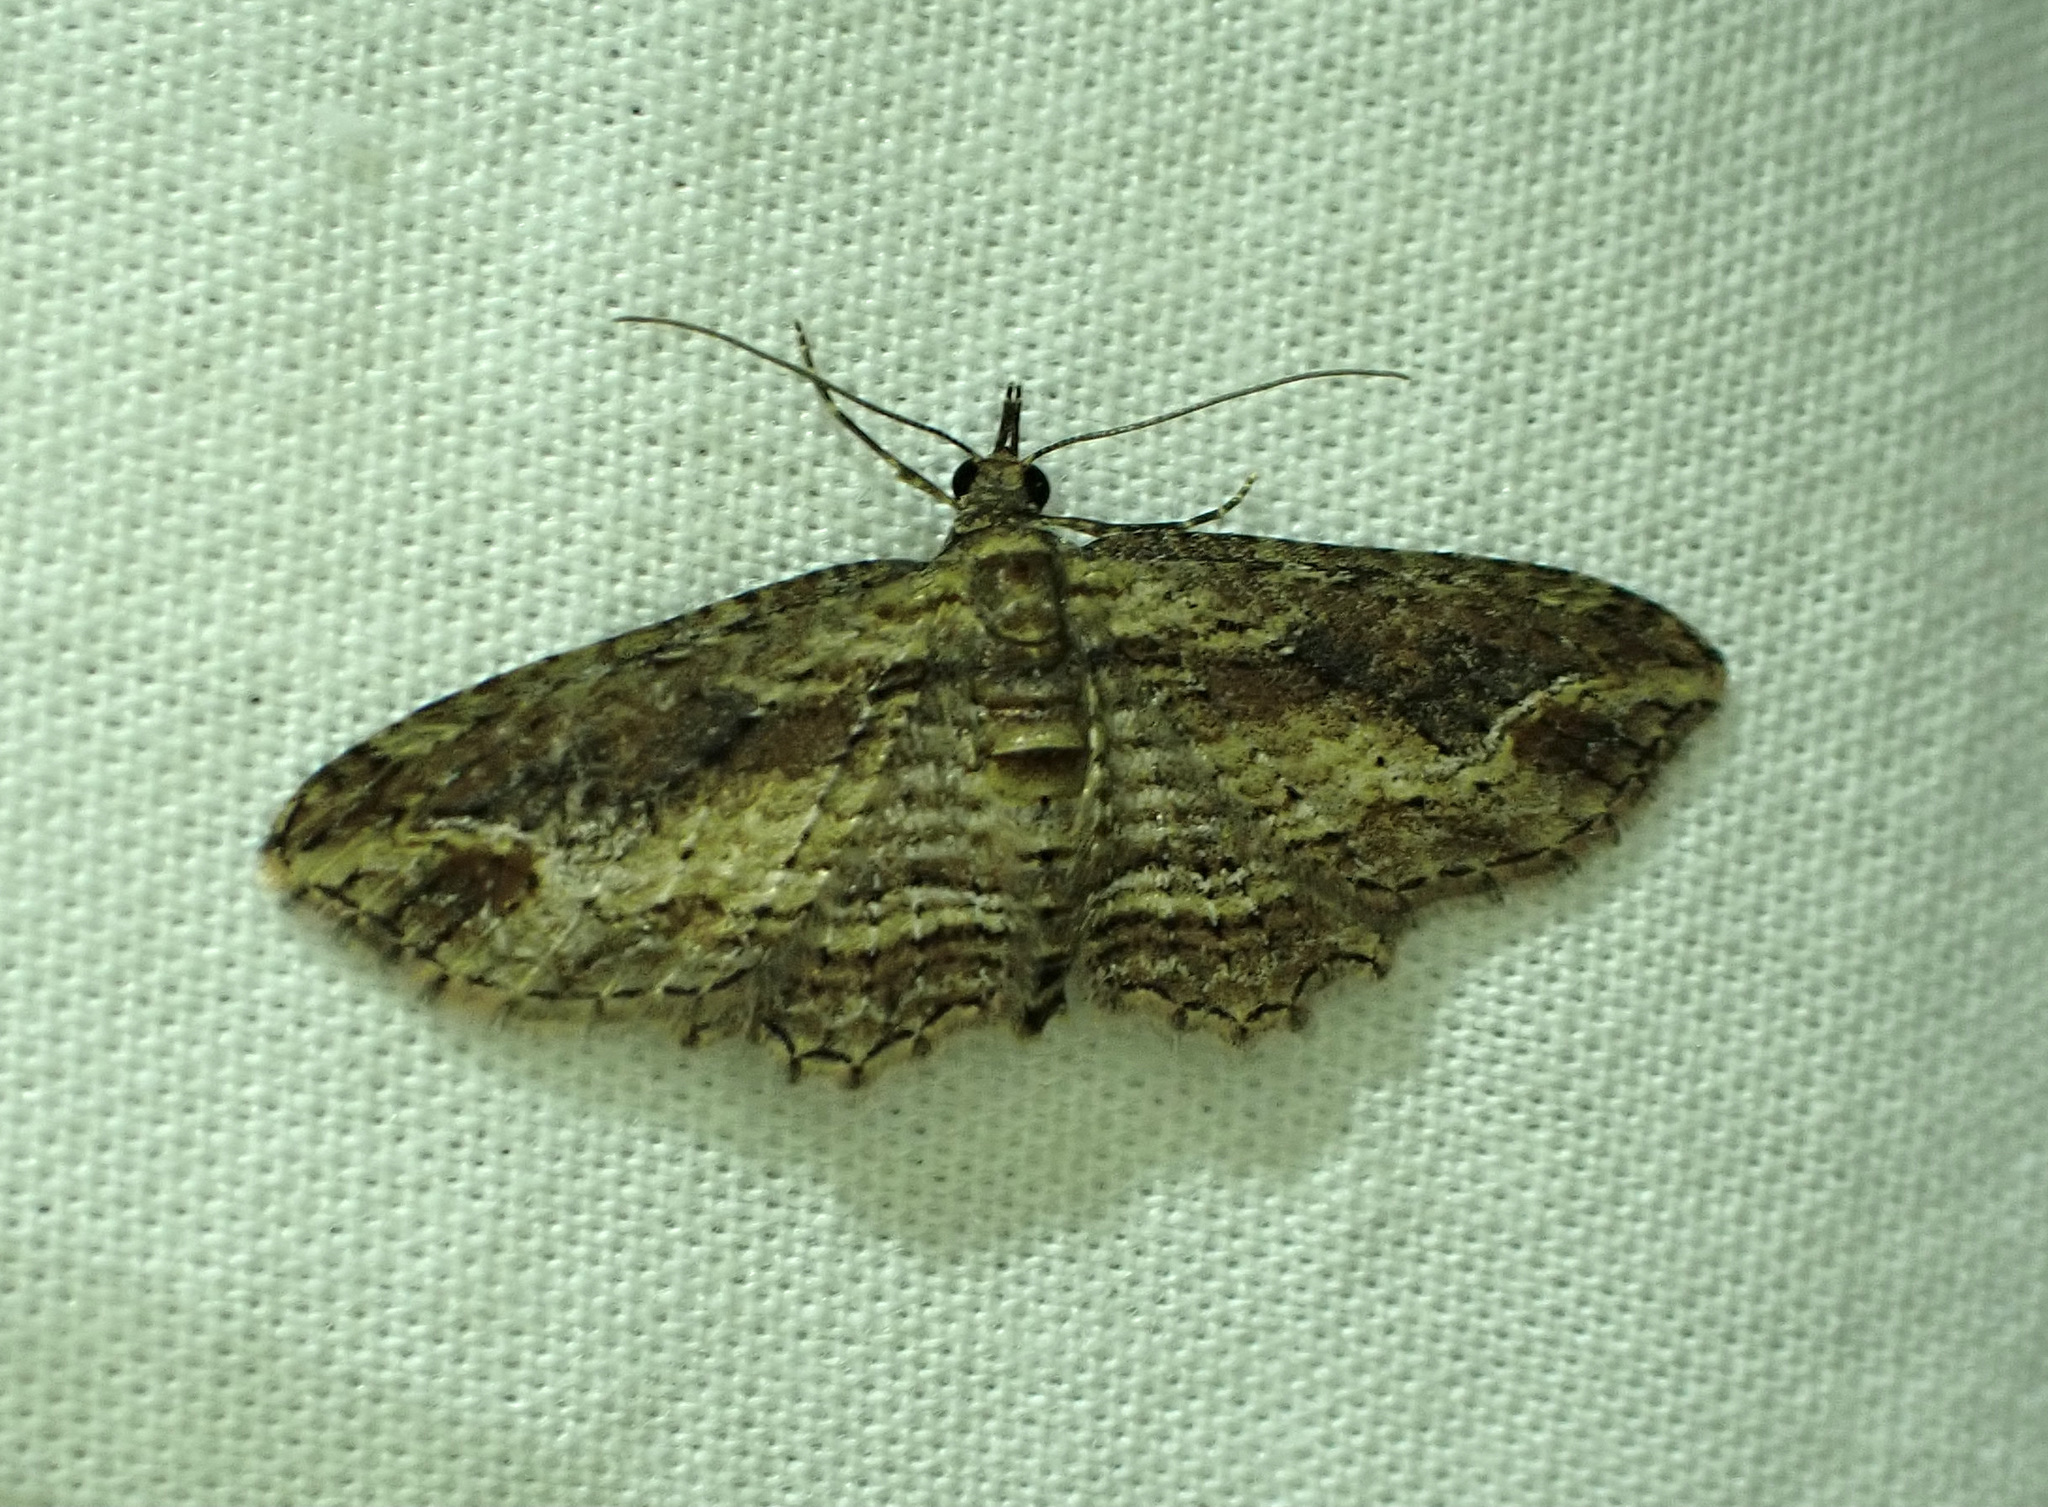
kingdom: Animalia
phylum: Arthropoda
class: Insecta
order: Lepidoptera
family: Geometridae
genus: Chloroclystis
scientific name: Chloroclystis filata
